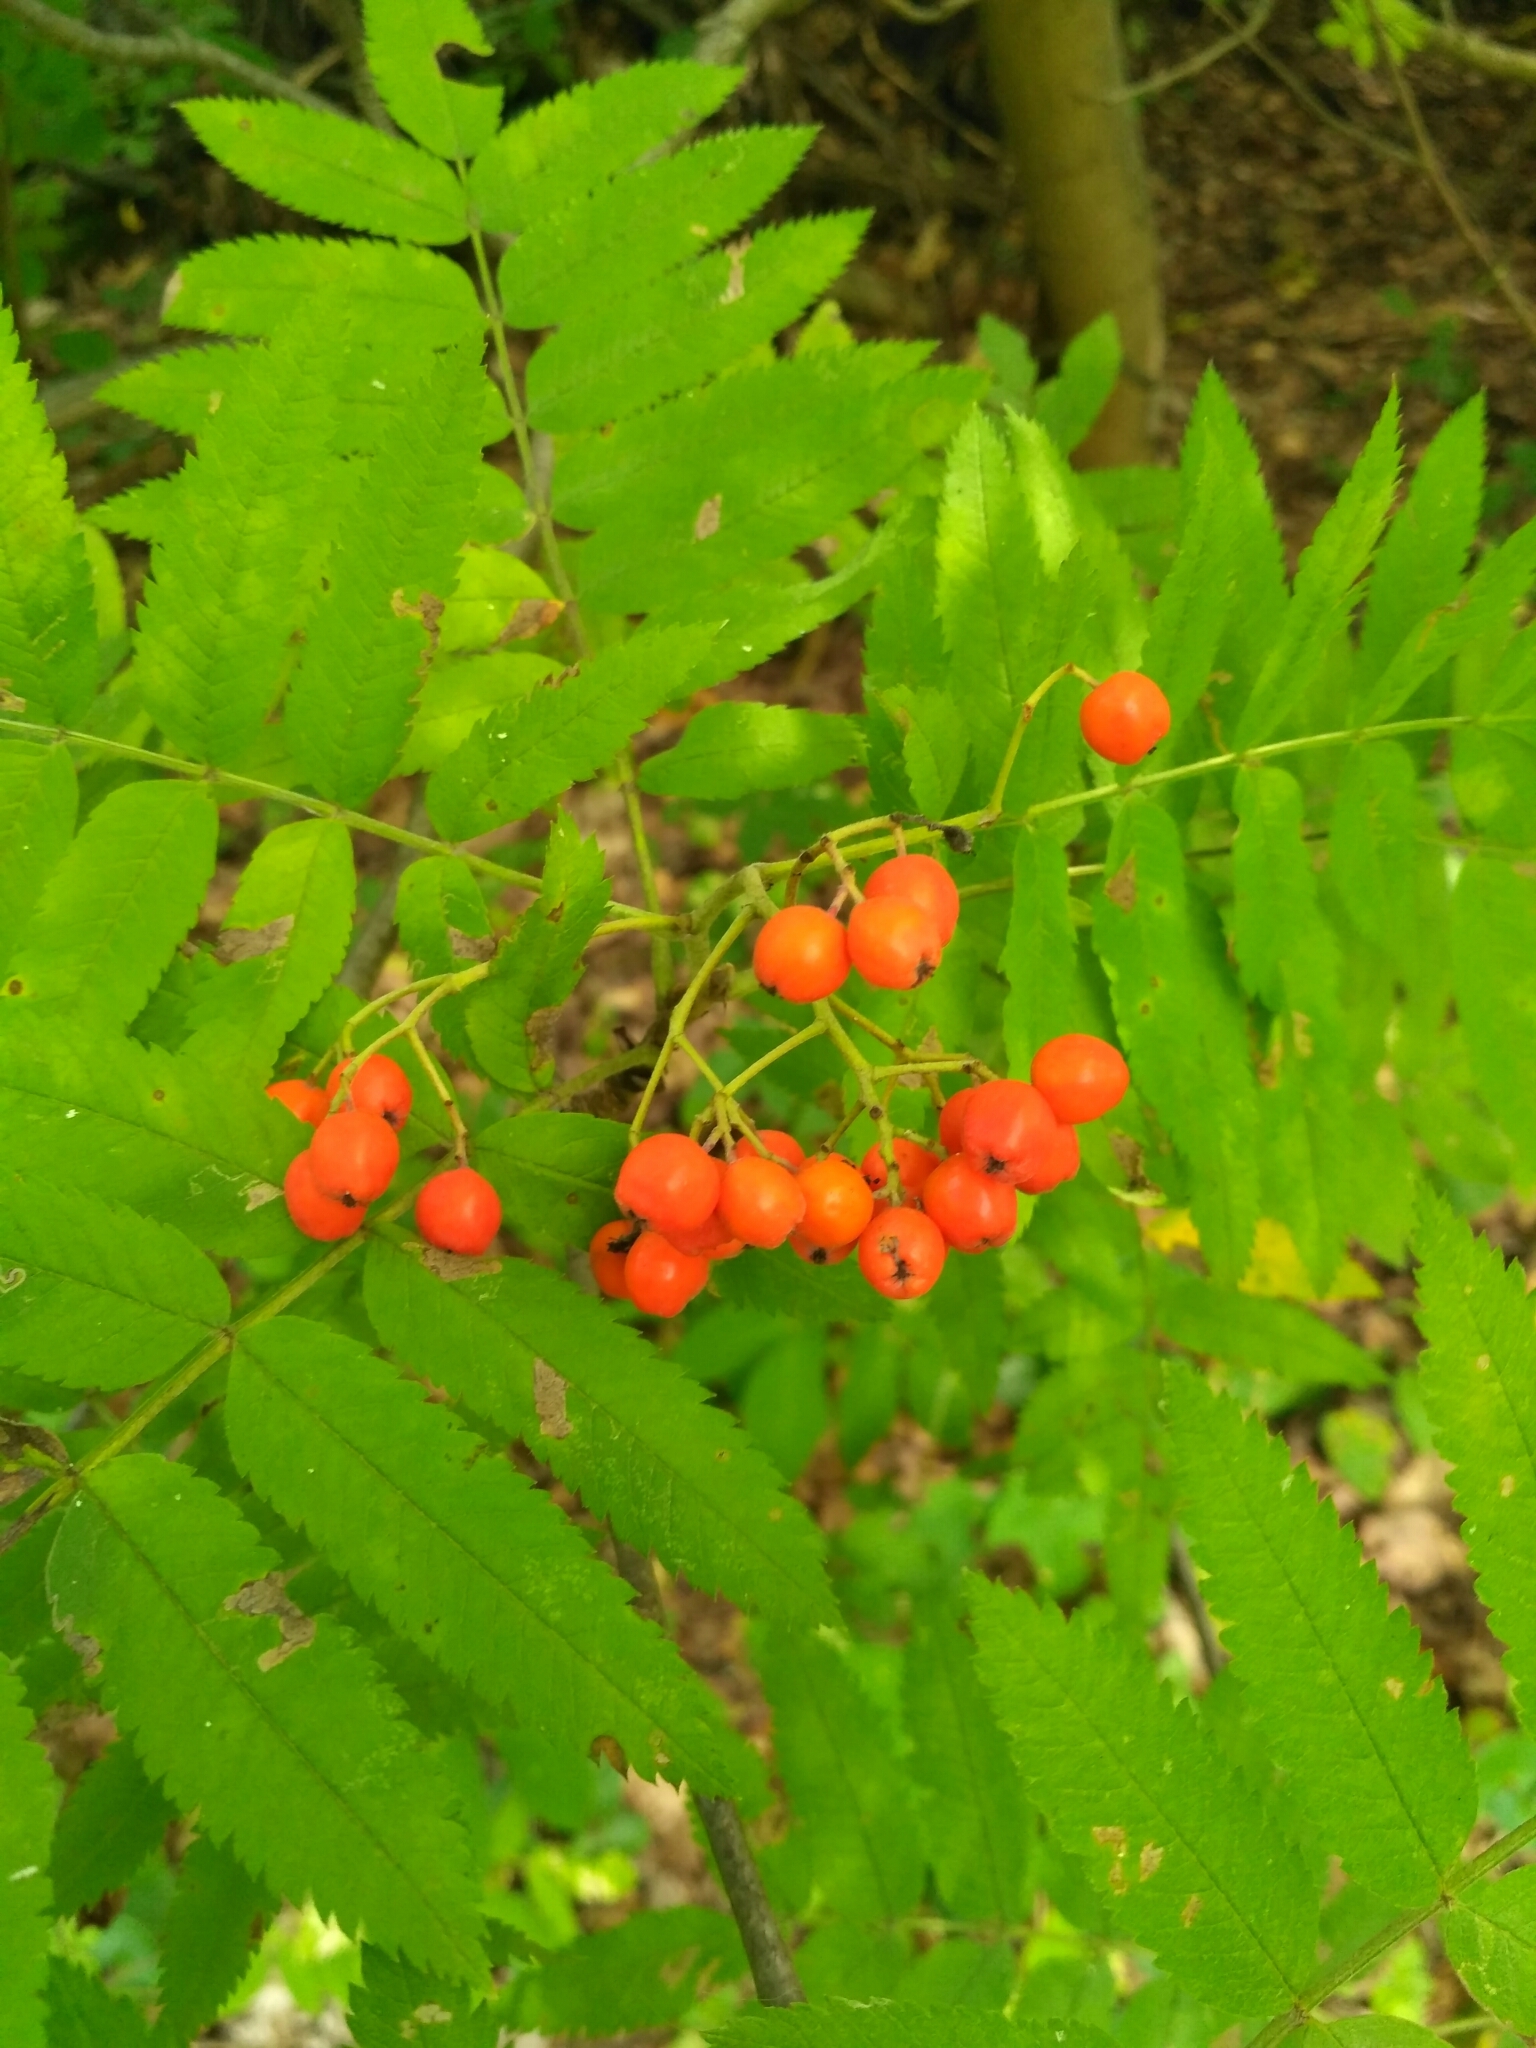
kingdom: Plantae
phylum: Tracheophyta
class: Magnoliopsida
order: Rosales
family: Rosaceae
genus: Sorbus
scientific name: Sorbus aucuparia
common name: Rowan
